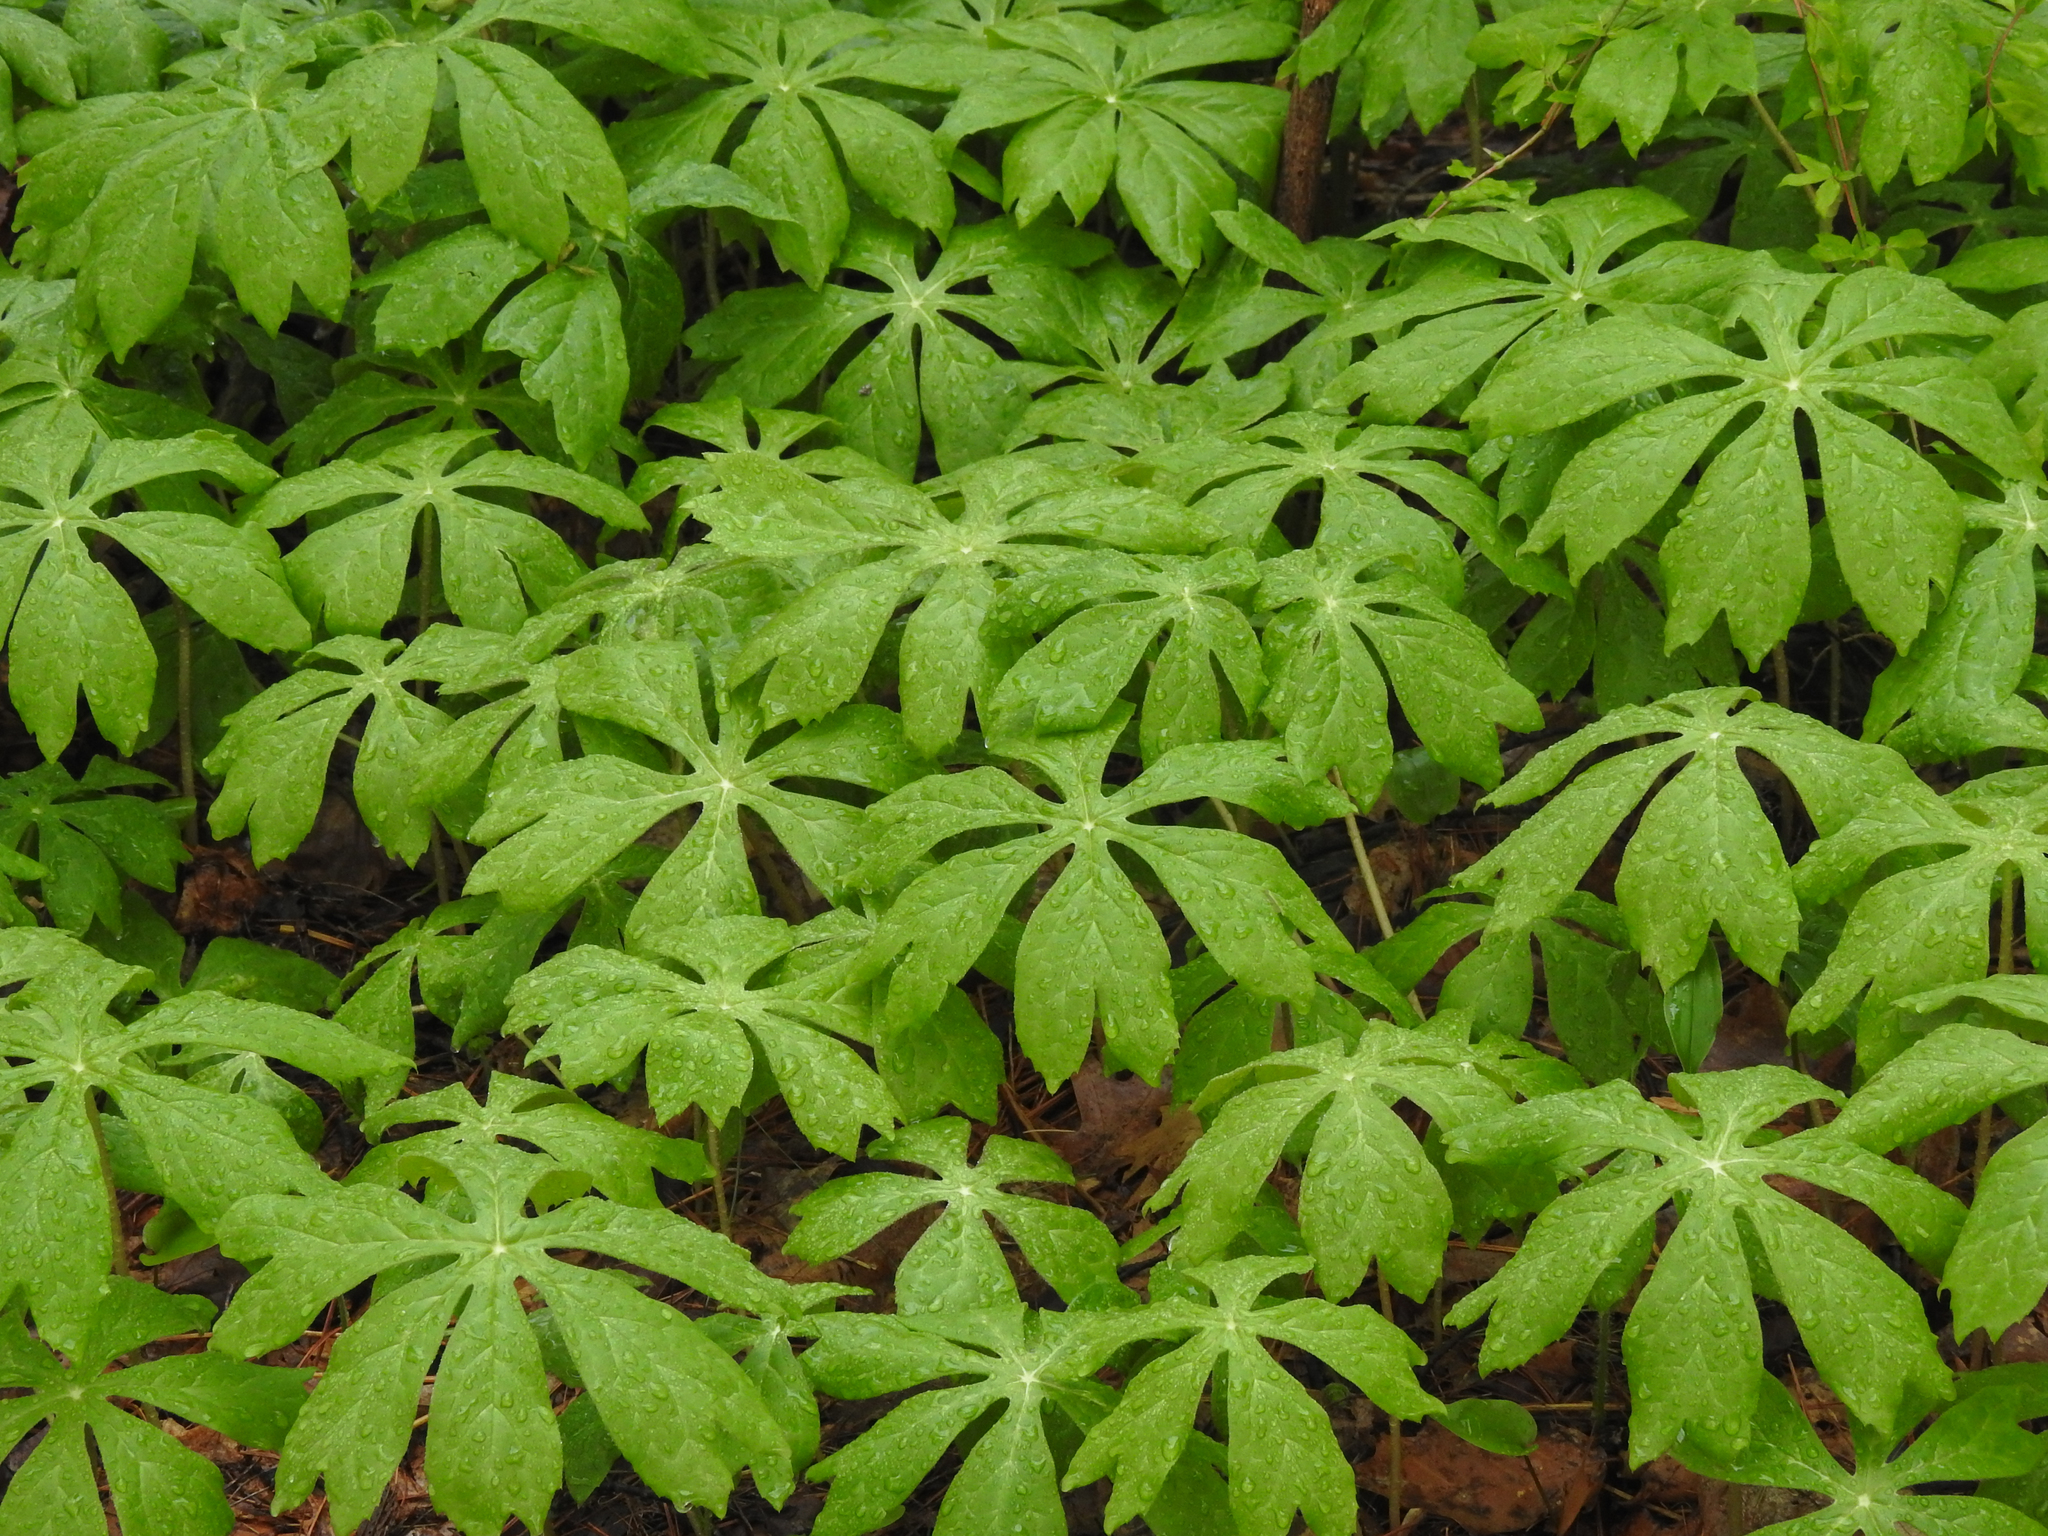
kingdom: Plantae
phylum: Tracheophyta
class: Magnoliopsida
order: Ranunculales
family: Berberidaceae
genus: Podophyllum
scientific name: Podophyllum peltatum
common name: Wild mandrake
